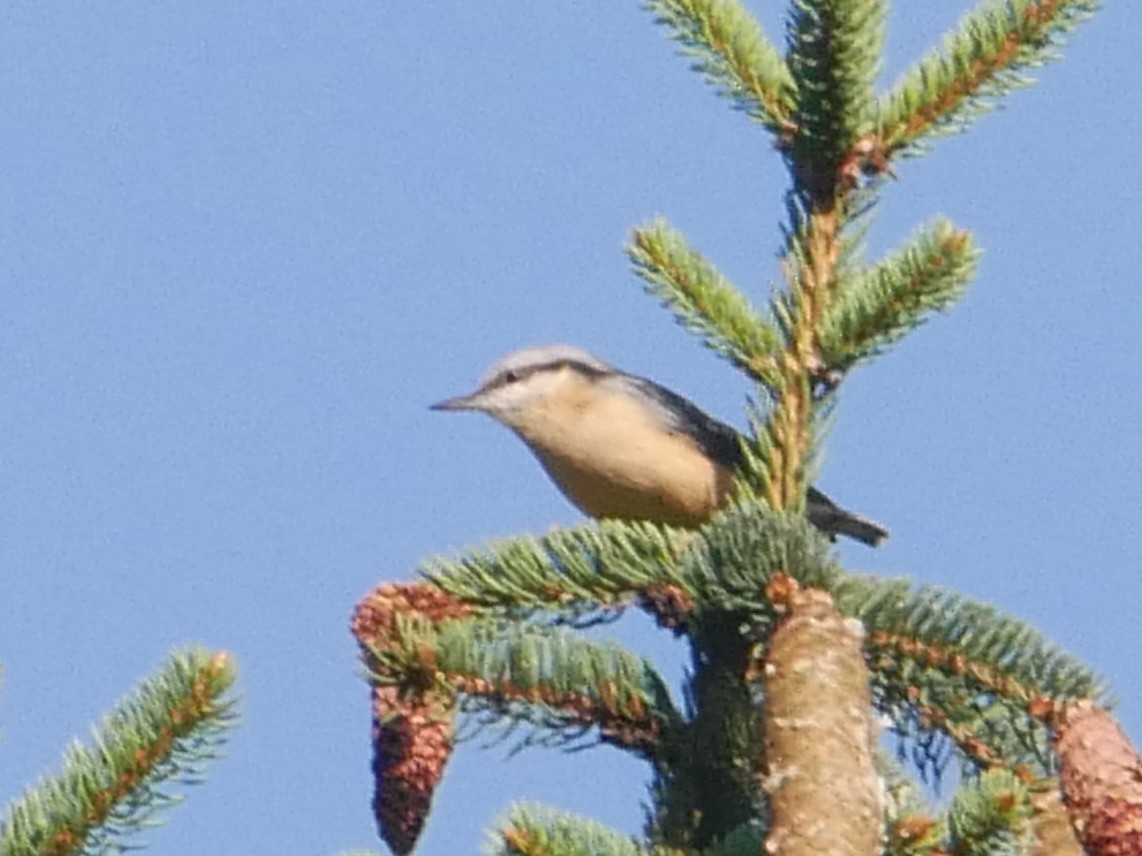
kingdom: Animalia
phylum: Chordata
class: Aves
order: Passeriformes
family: Sittidae
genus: Sitta
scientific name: Sitta europaea
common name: Eurasian nuthatch
